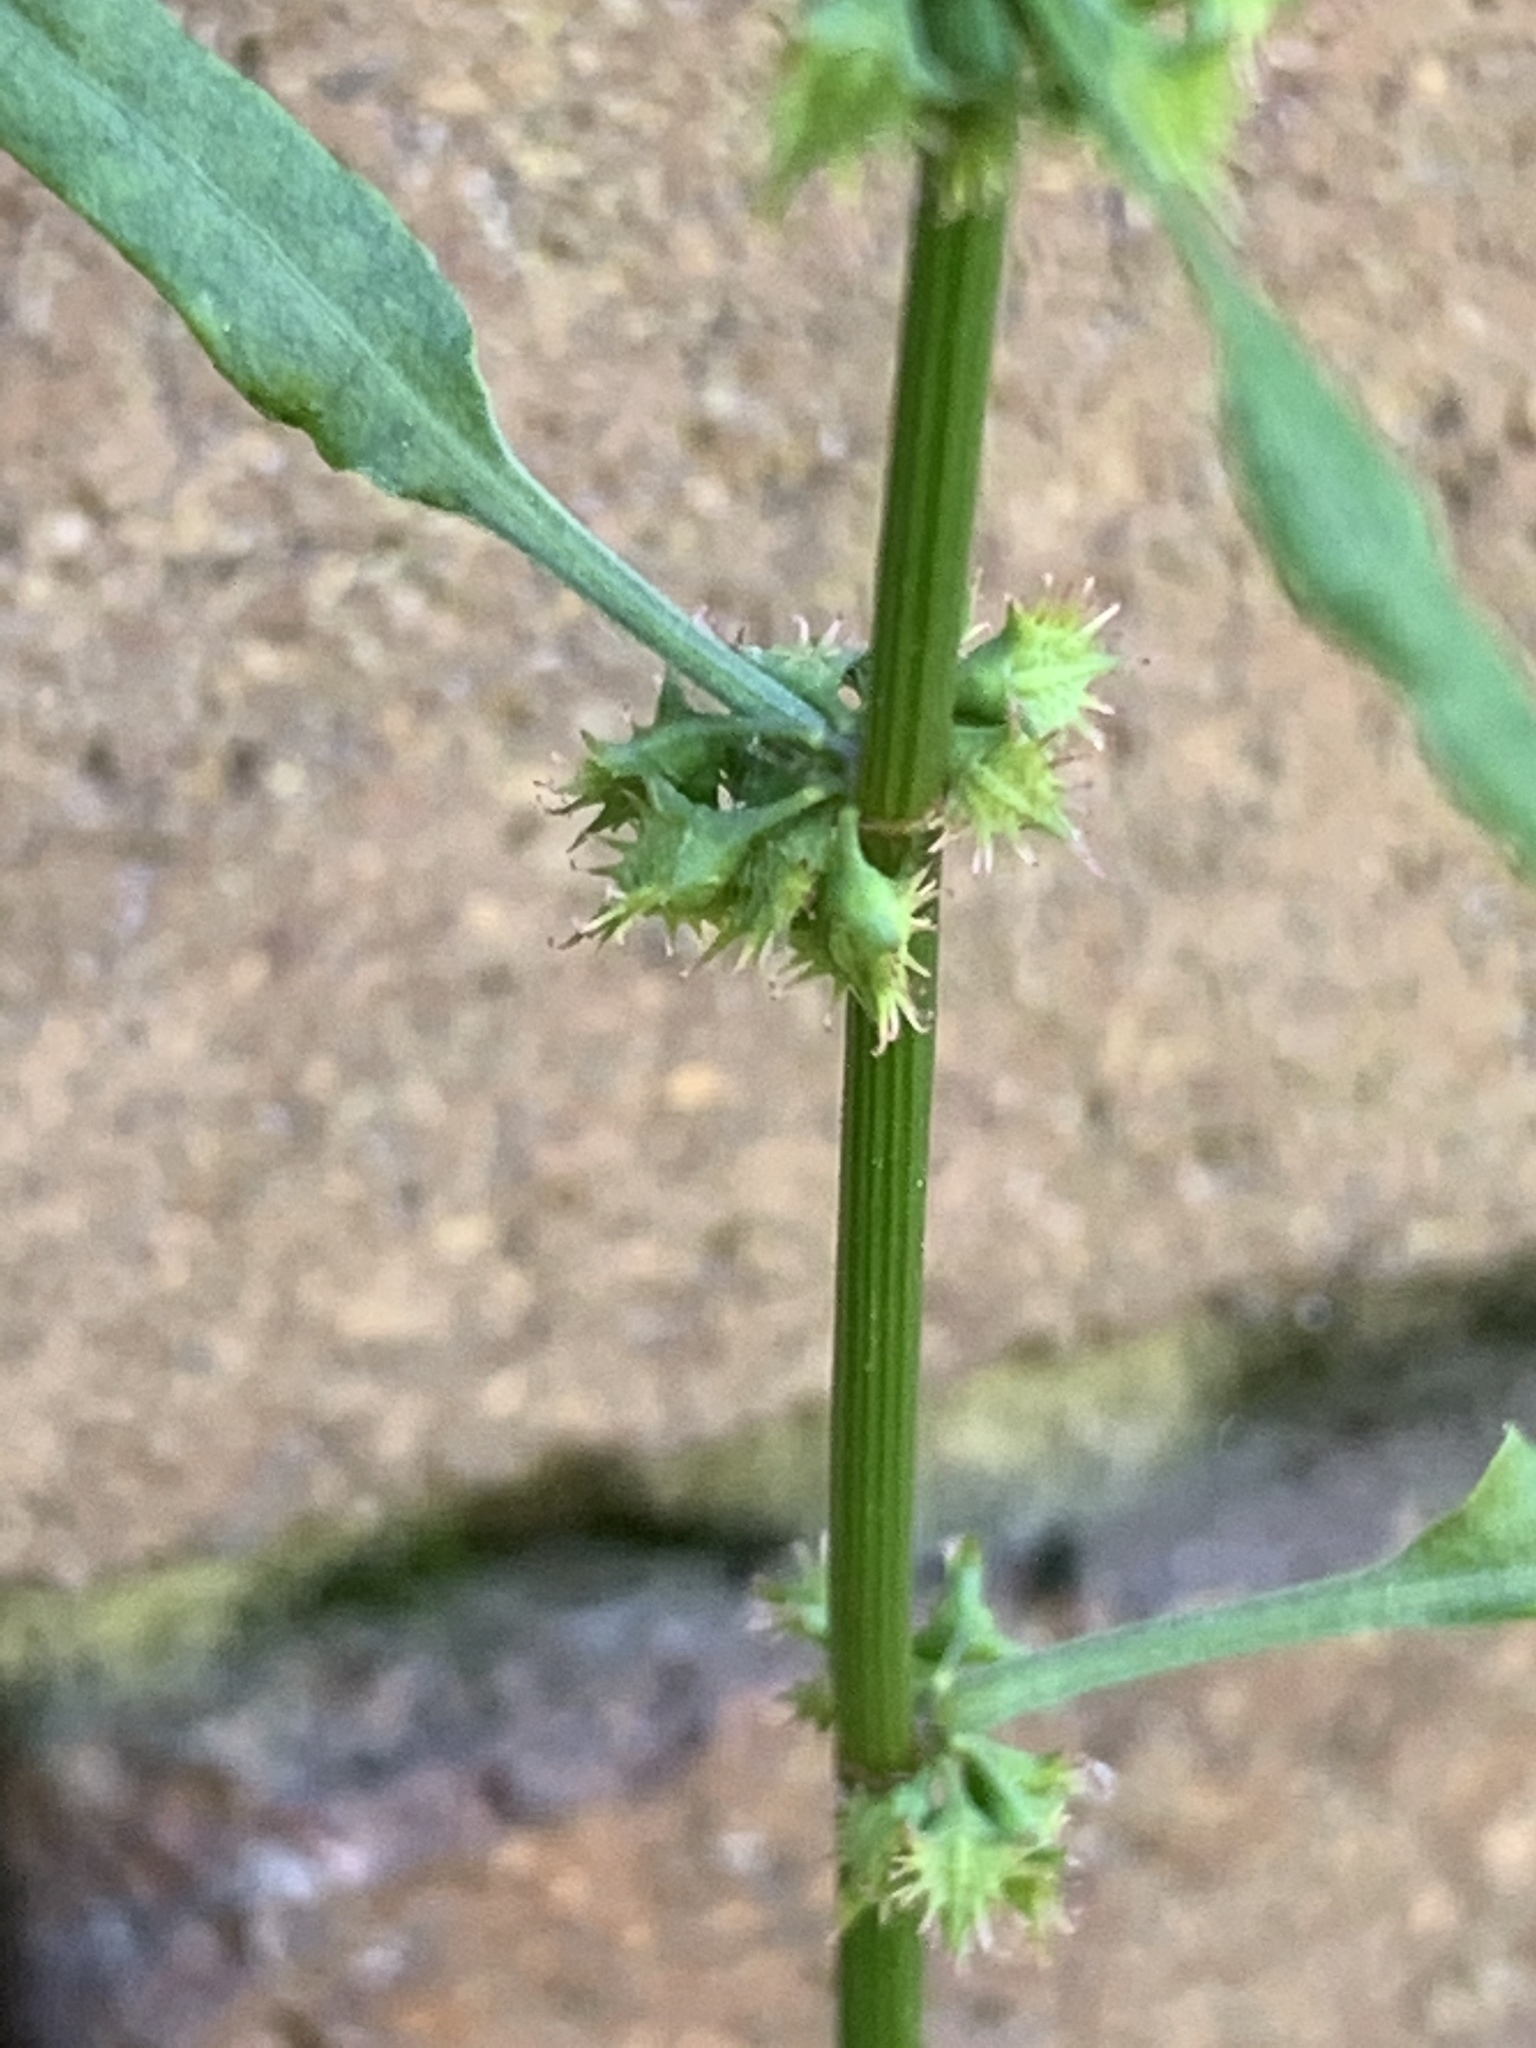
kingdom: Plantae
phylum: Tracheophyta
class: Magnoliopsida
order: Caryophyllales
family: Polygonaceae
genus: Rumex
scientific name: Rumex brownii
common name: Hooked dock
